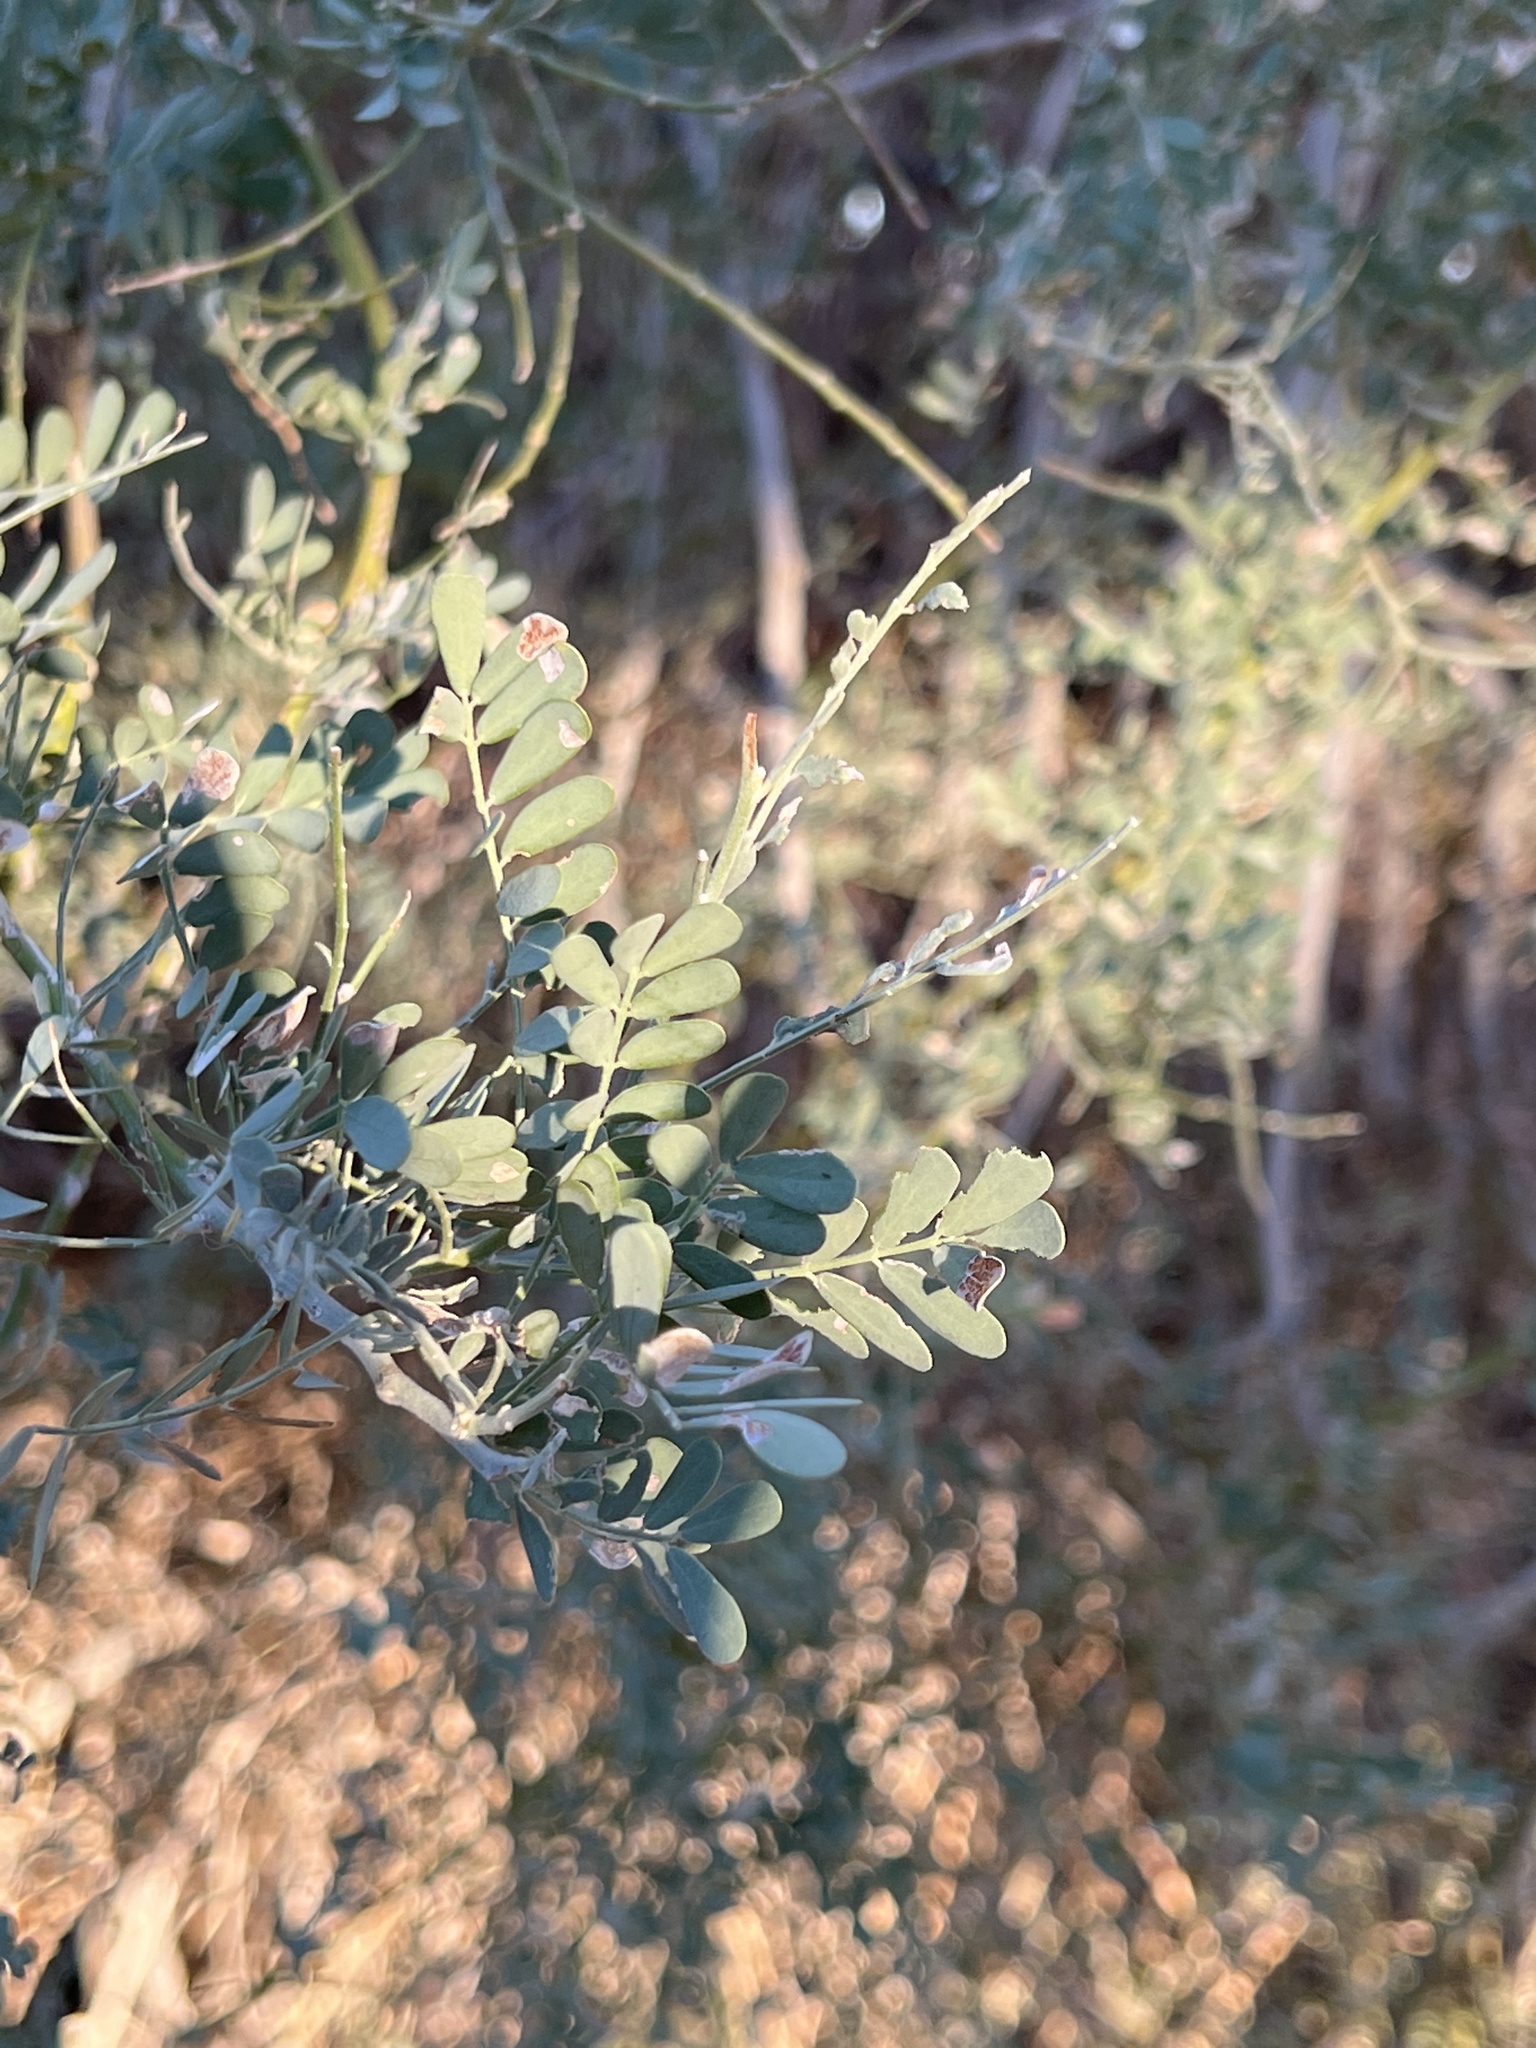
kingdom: Plantae
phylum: Tracheophyta
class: Magnoliopsida
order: Fabales
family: Fabaceae
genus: Olneya
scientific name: Olneya tesota
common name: Desert ironwood
